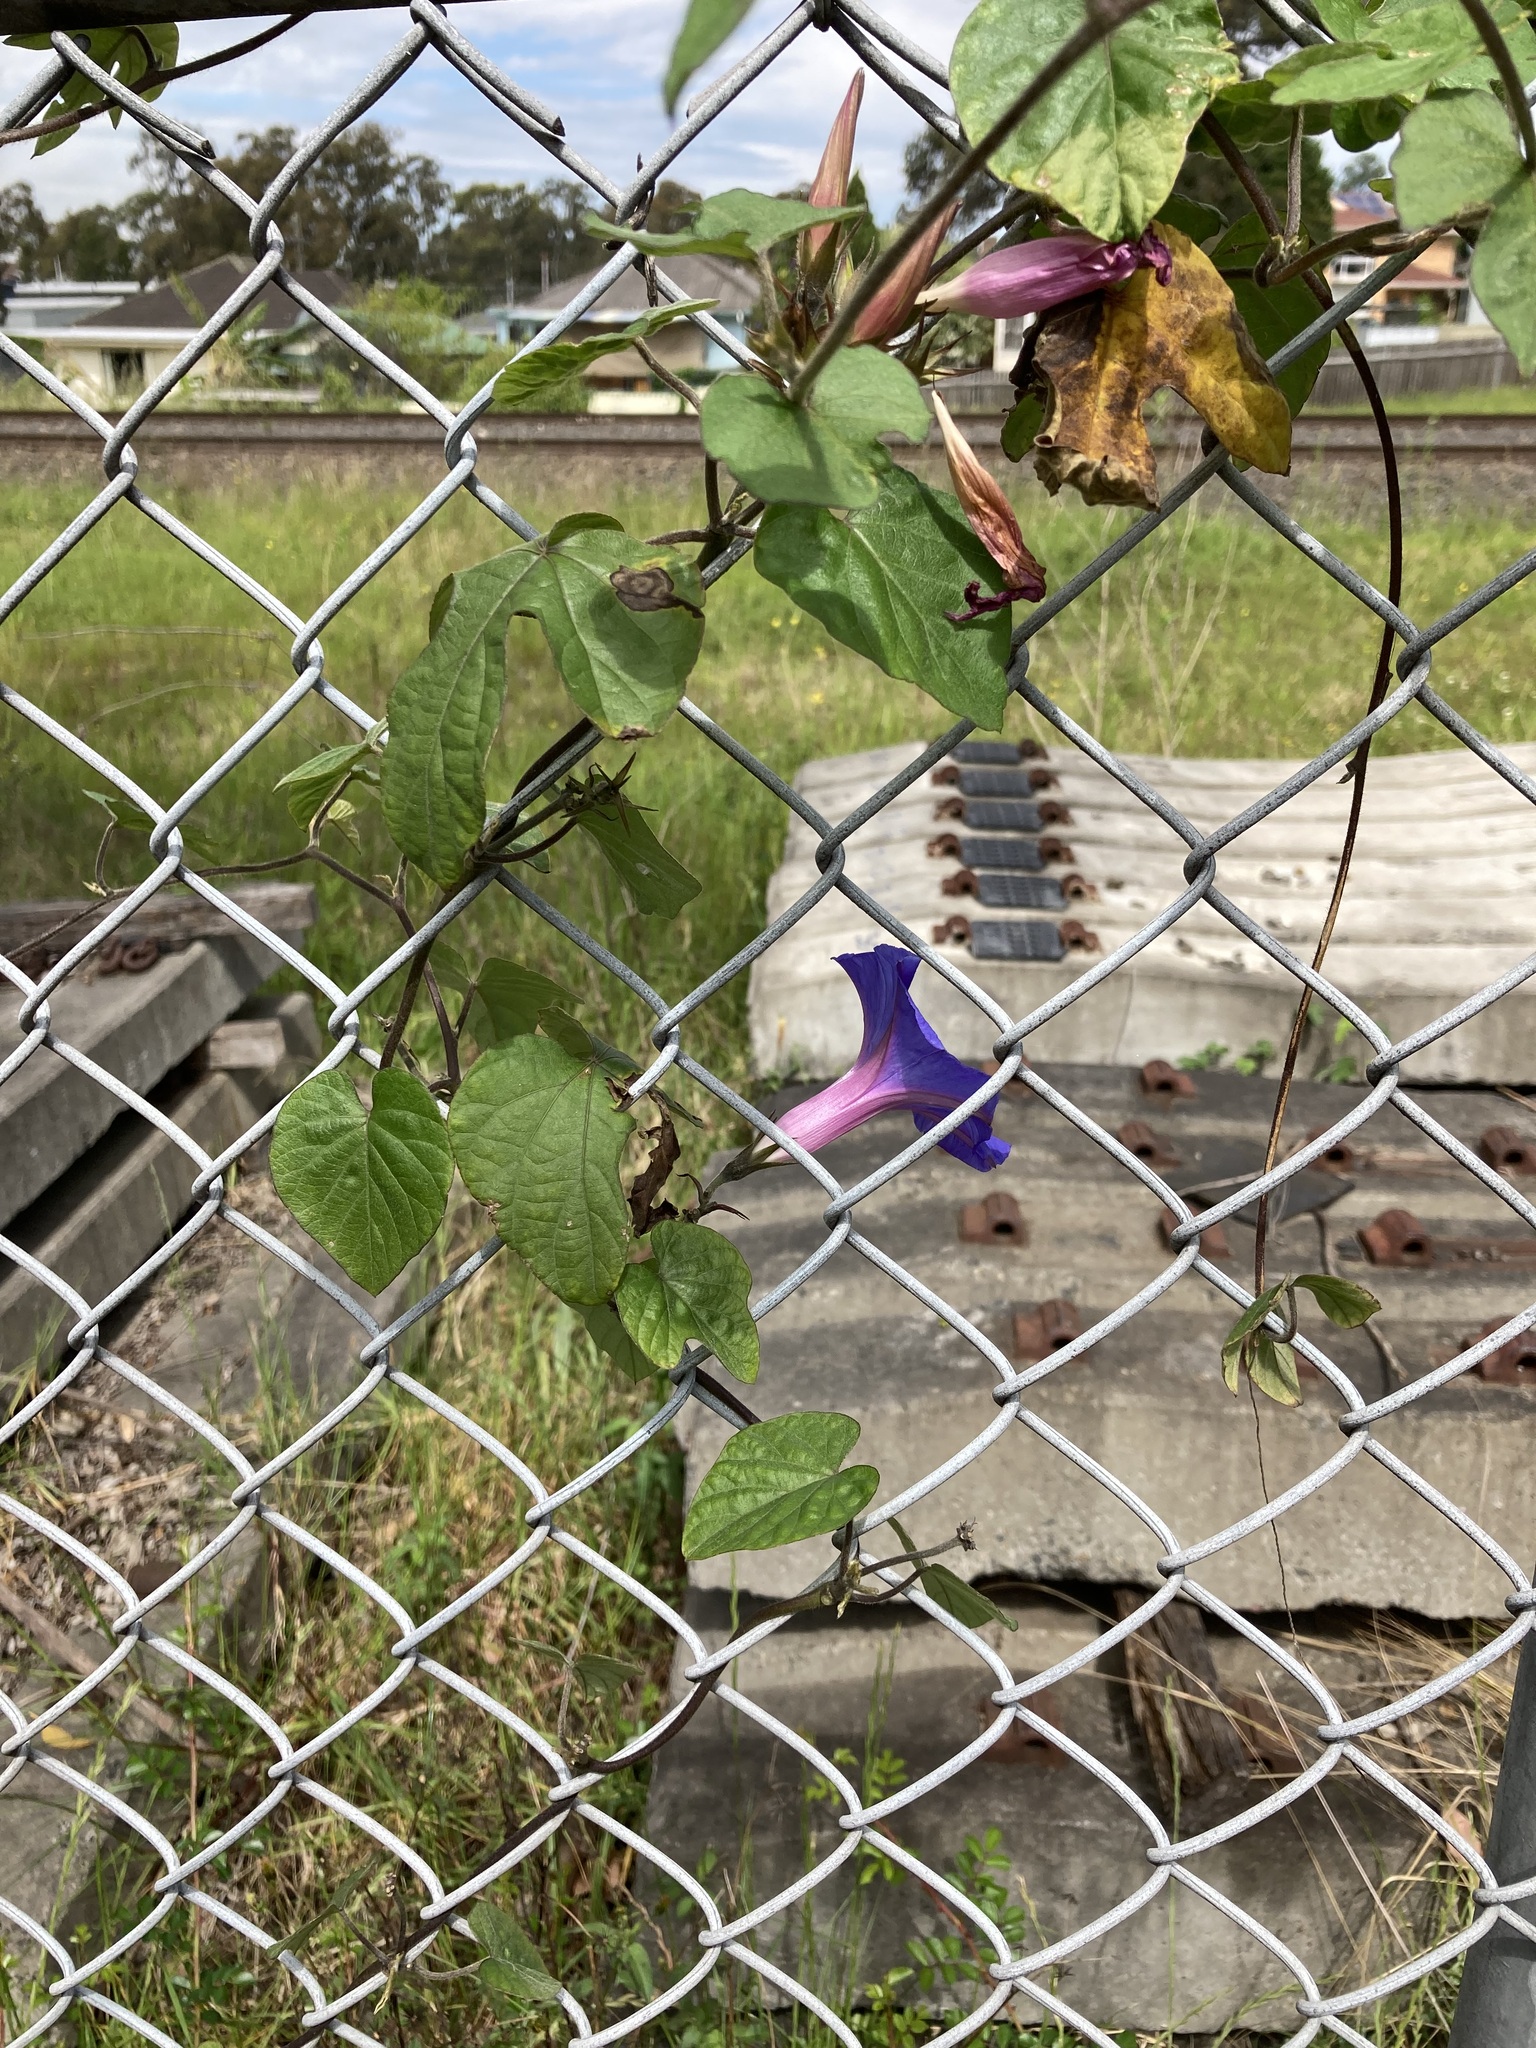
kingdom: Plantae
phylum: Tracheophyta
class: Magnoliopsida
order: Solanales
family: Convolvulaceae
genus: Ipomoea
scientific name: Ipomoea indica
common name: Blue dawnflower
